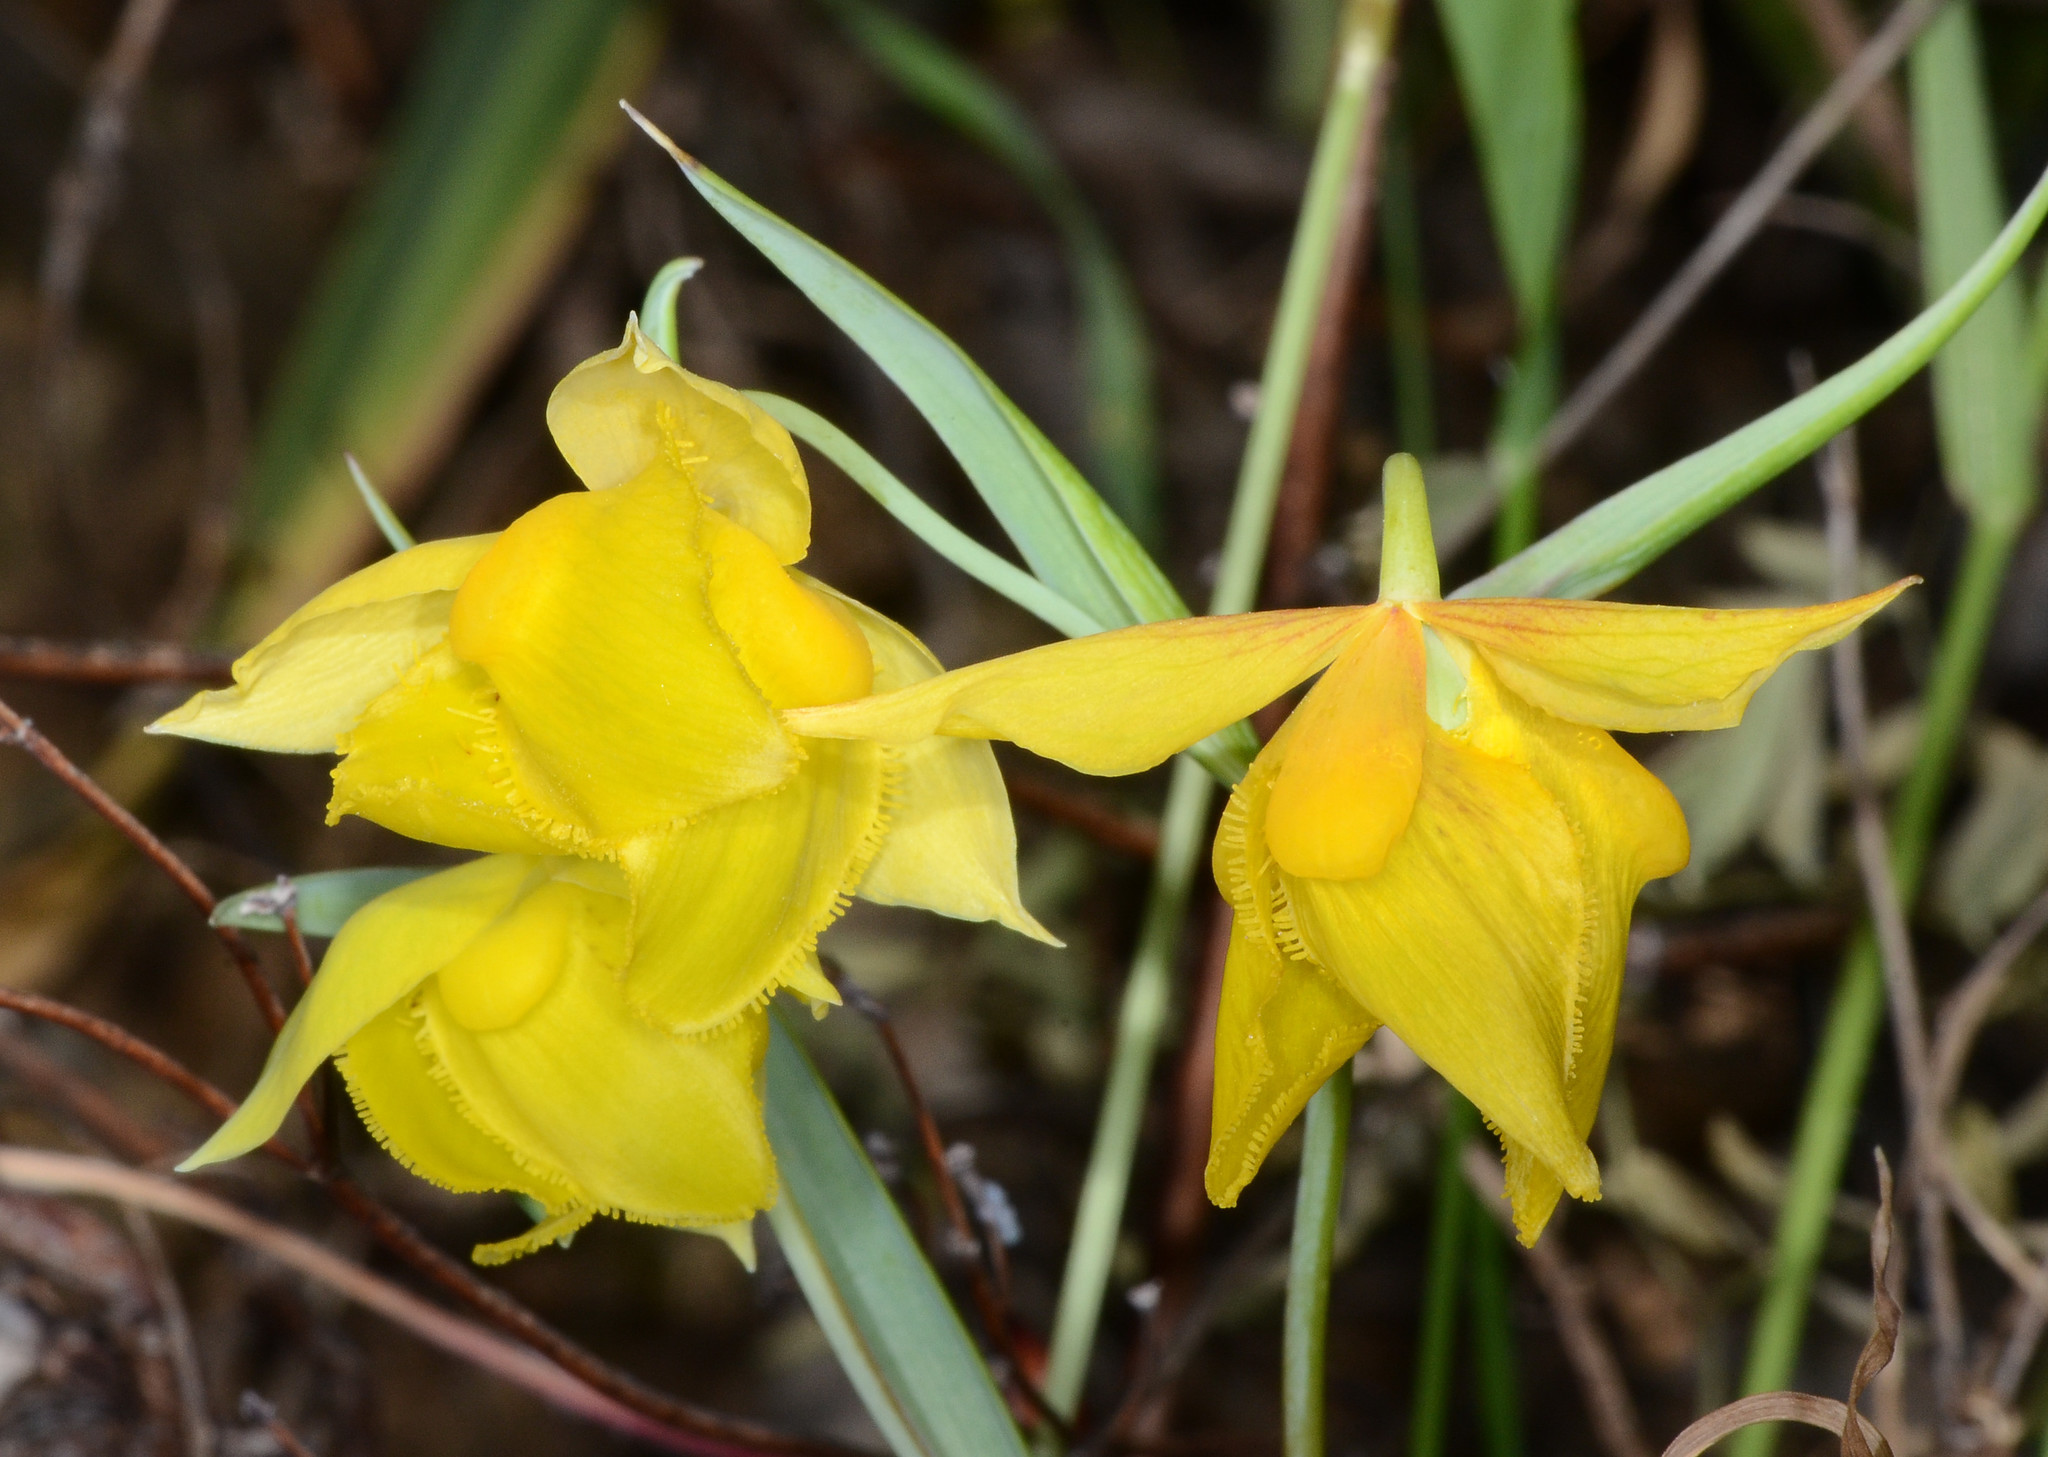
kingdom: Plantae
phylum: Tracheophyta
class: Liliopsida
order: Liliales
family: Liliaceae
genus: Calochortus
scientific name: Calochortus amabilis
